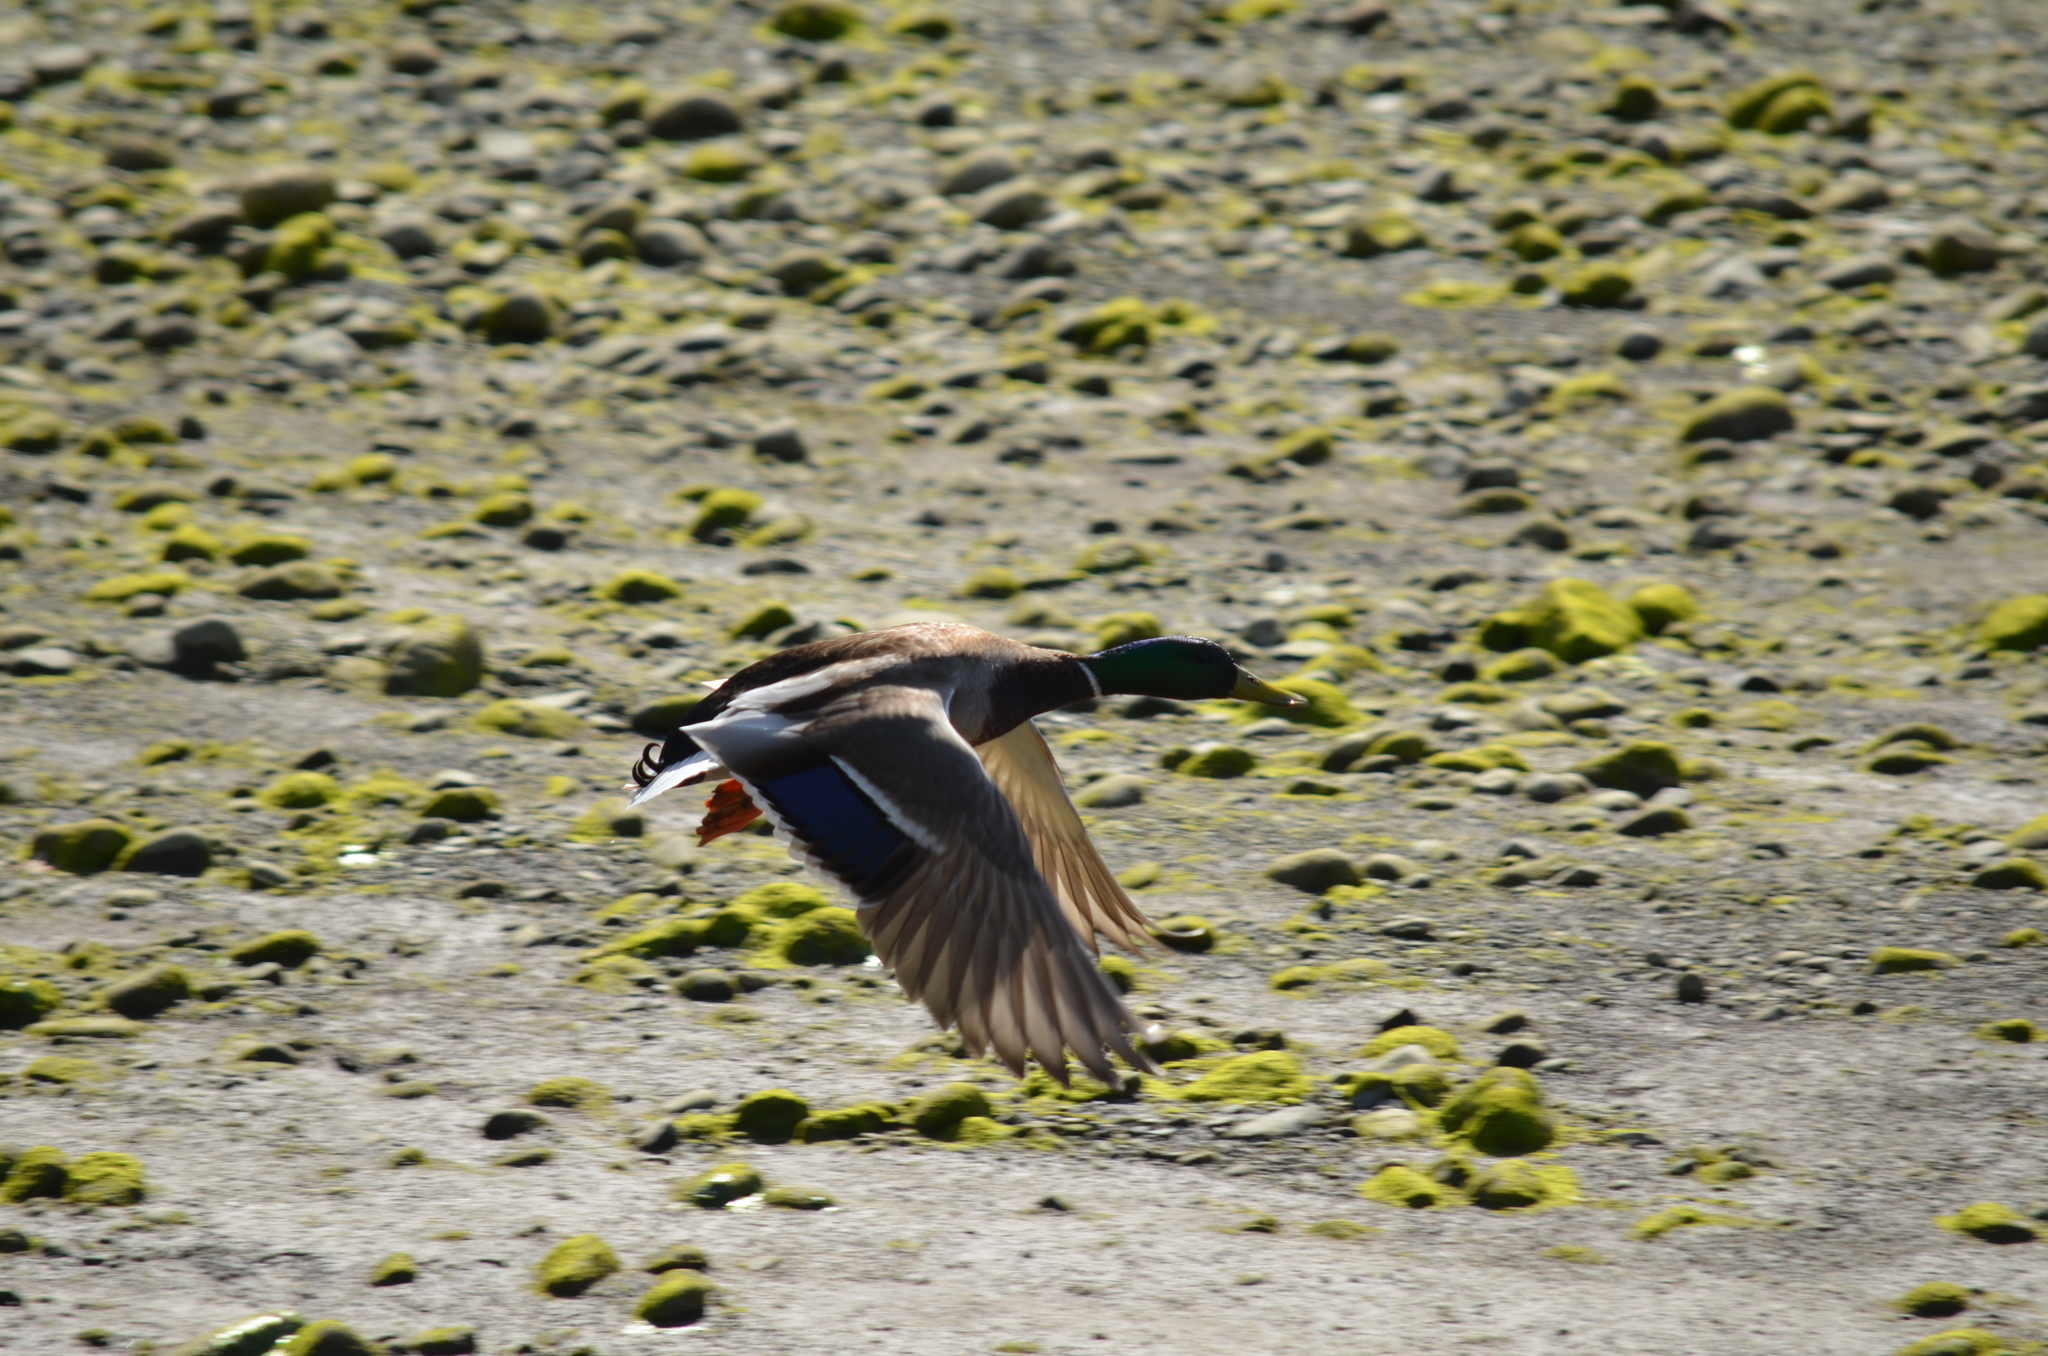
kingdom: Animalia
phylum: Chordata
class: Aves
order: Anseriformes
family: Anatidae
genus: Anas
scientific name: Anas platyrhynchos
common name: Mallard
